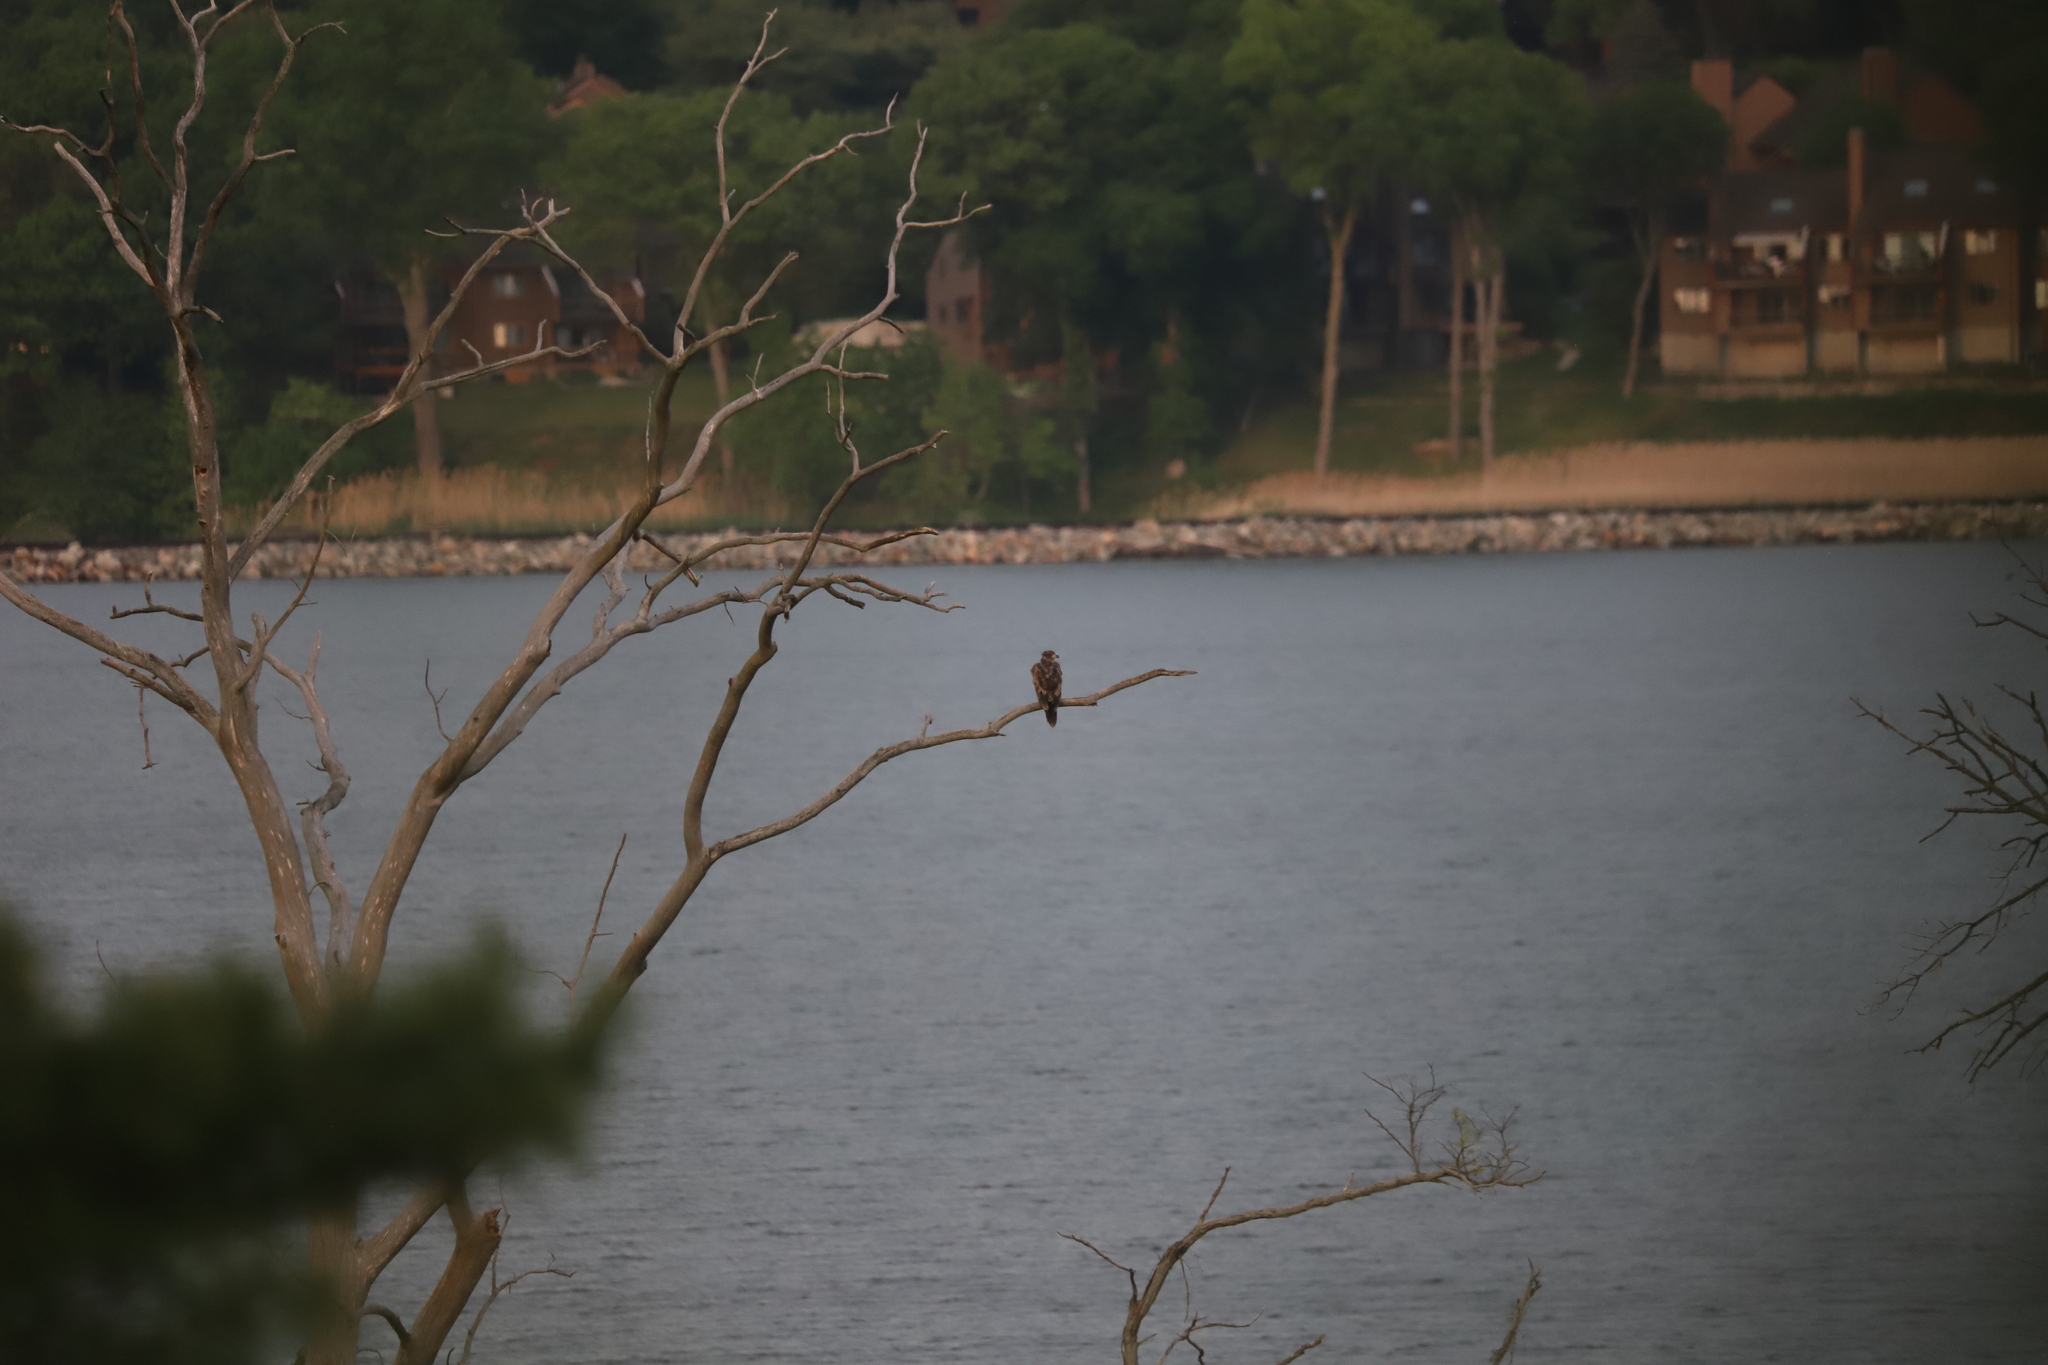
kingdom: Animalia
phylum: Chordata
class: Aves
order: Accipitriformes
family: Accipitridae
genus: Haliaeetus
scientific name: Haliaeetus leucocephalus
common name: Bald eagle
